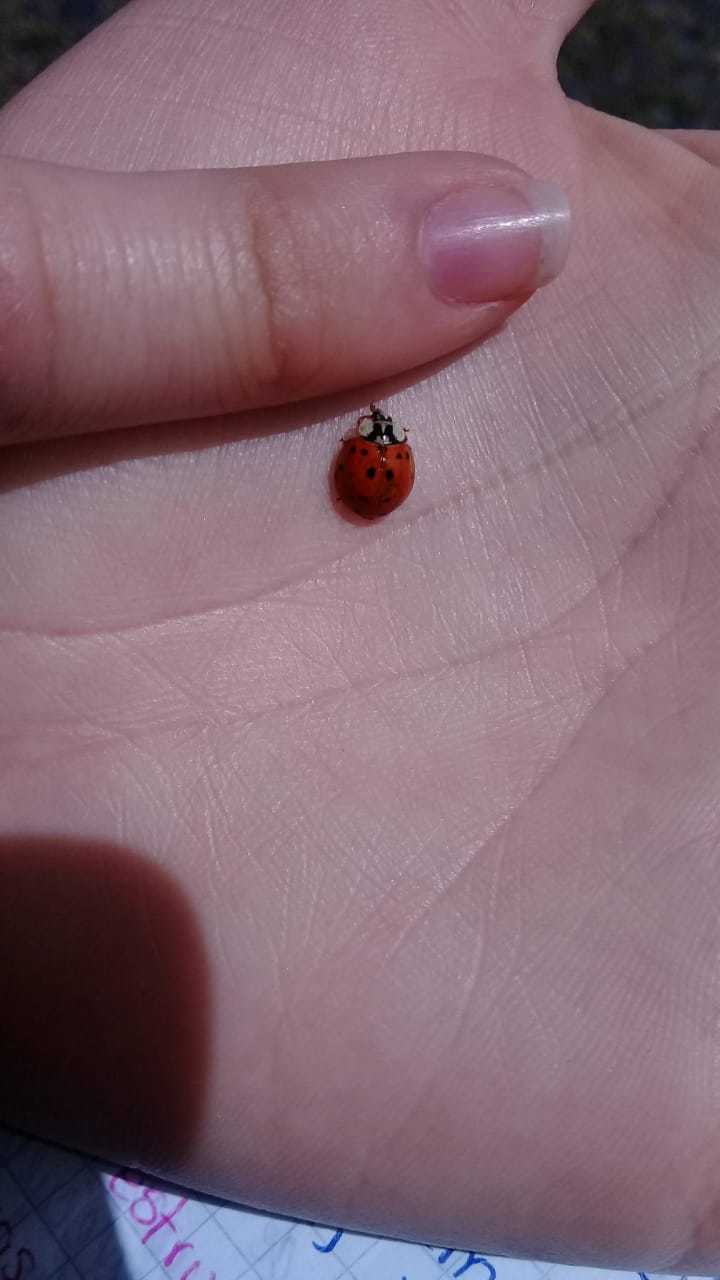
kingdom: Animalia
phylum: Arthropoda
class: Insecta
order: Coleoptera
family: Coccinellidae
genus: Harmonia
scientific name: Harmonia axyridis
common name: Harlequin ladybird
